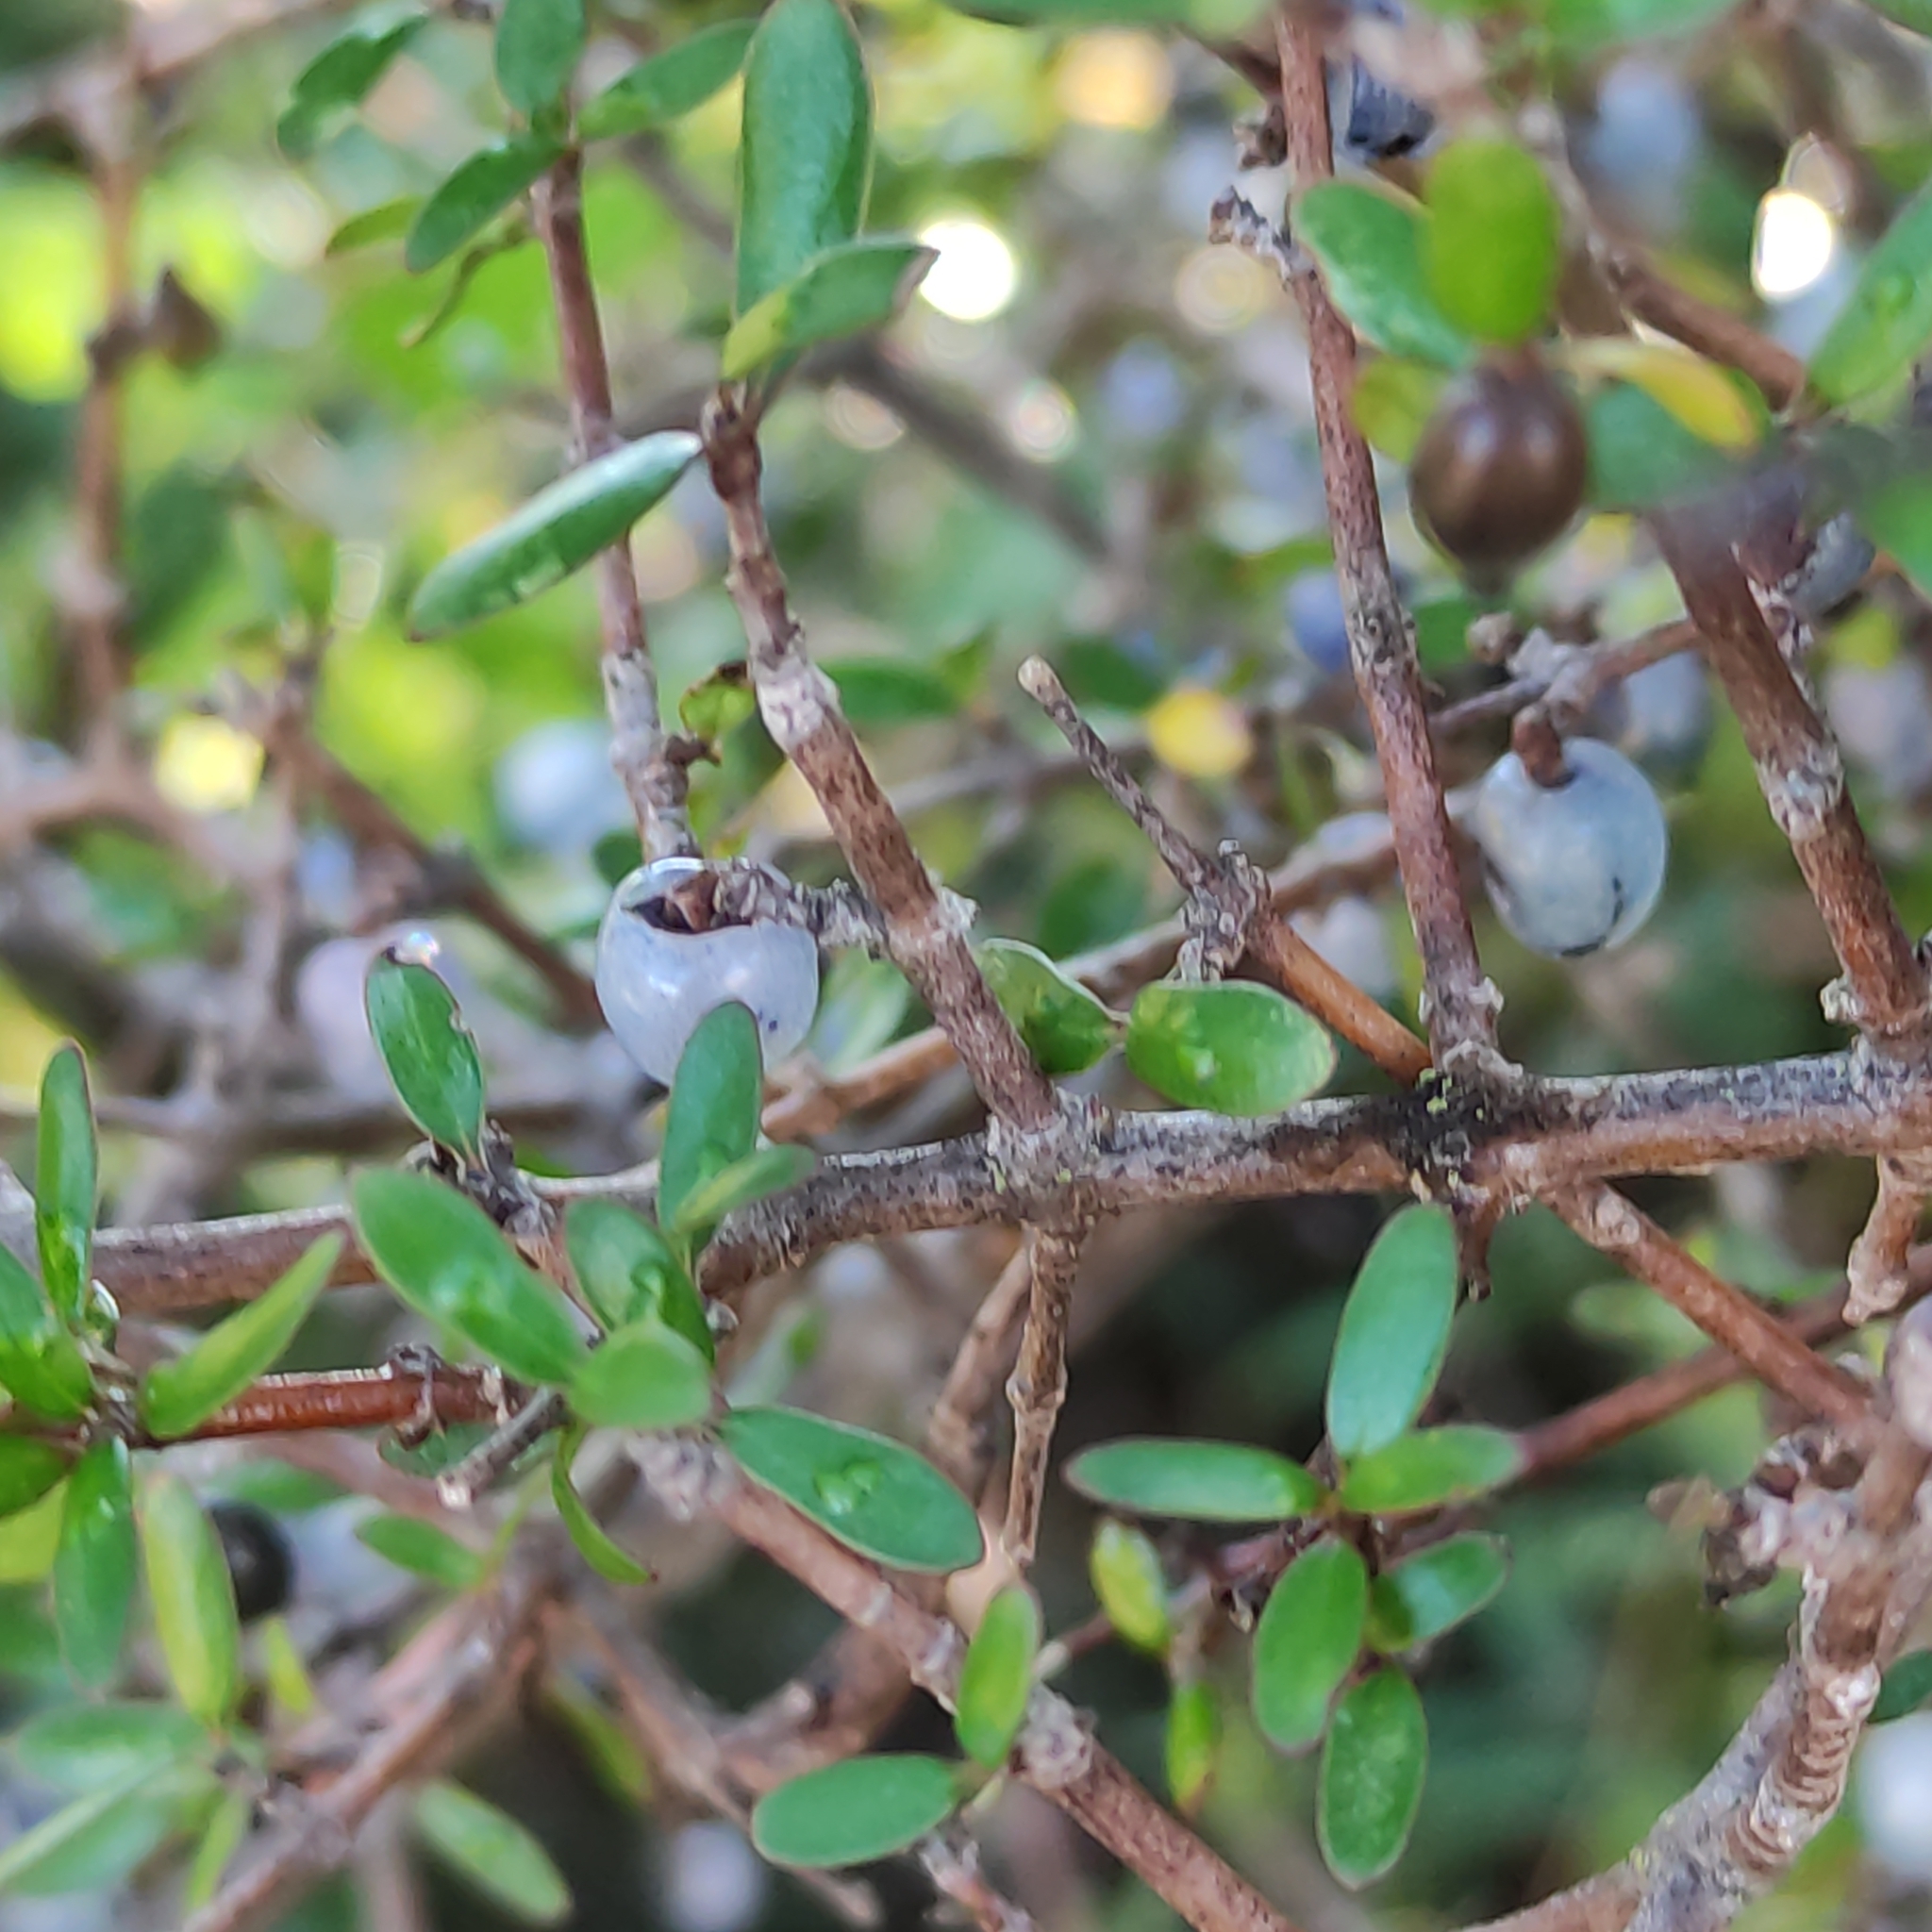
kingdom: Plantae
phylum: Tracheophyta
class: Magnoliopsida
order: Gentianales
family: Rubiaceae
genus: Coprosma
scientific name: Coprosma propinqua
